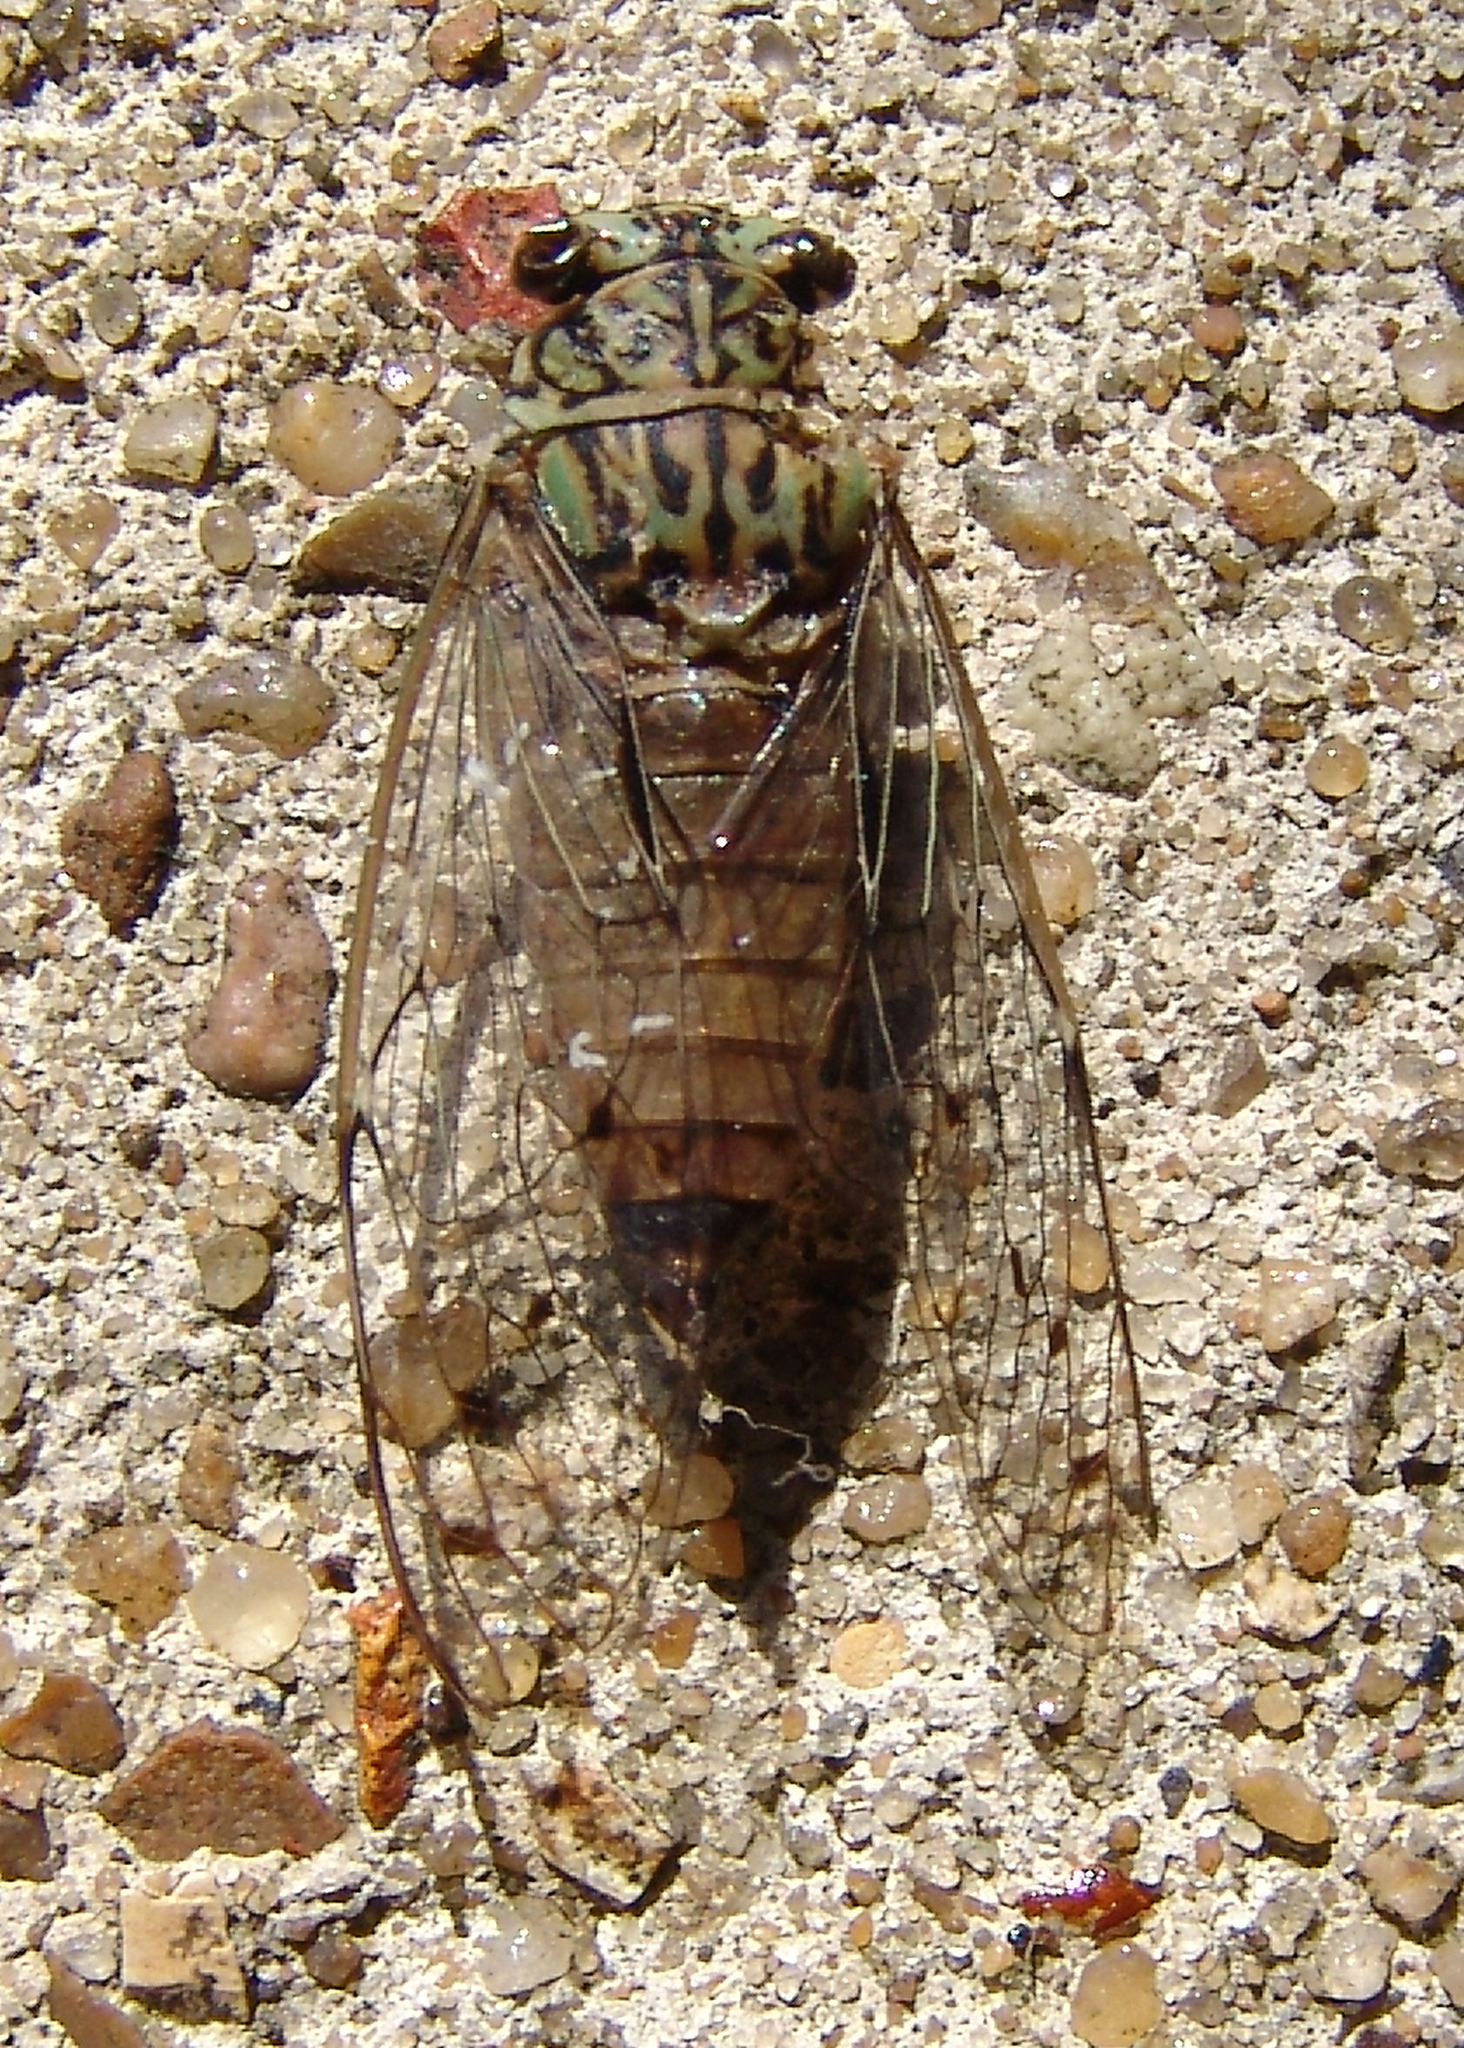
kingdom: Animalia
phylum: Arthropoda
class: Insecta
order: Hemiptera
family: Cicadidae
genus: Neocicada
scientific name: Neocicada hieroglyphica
